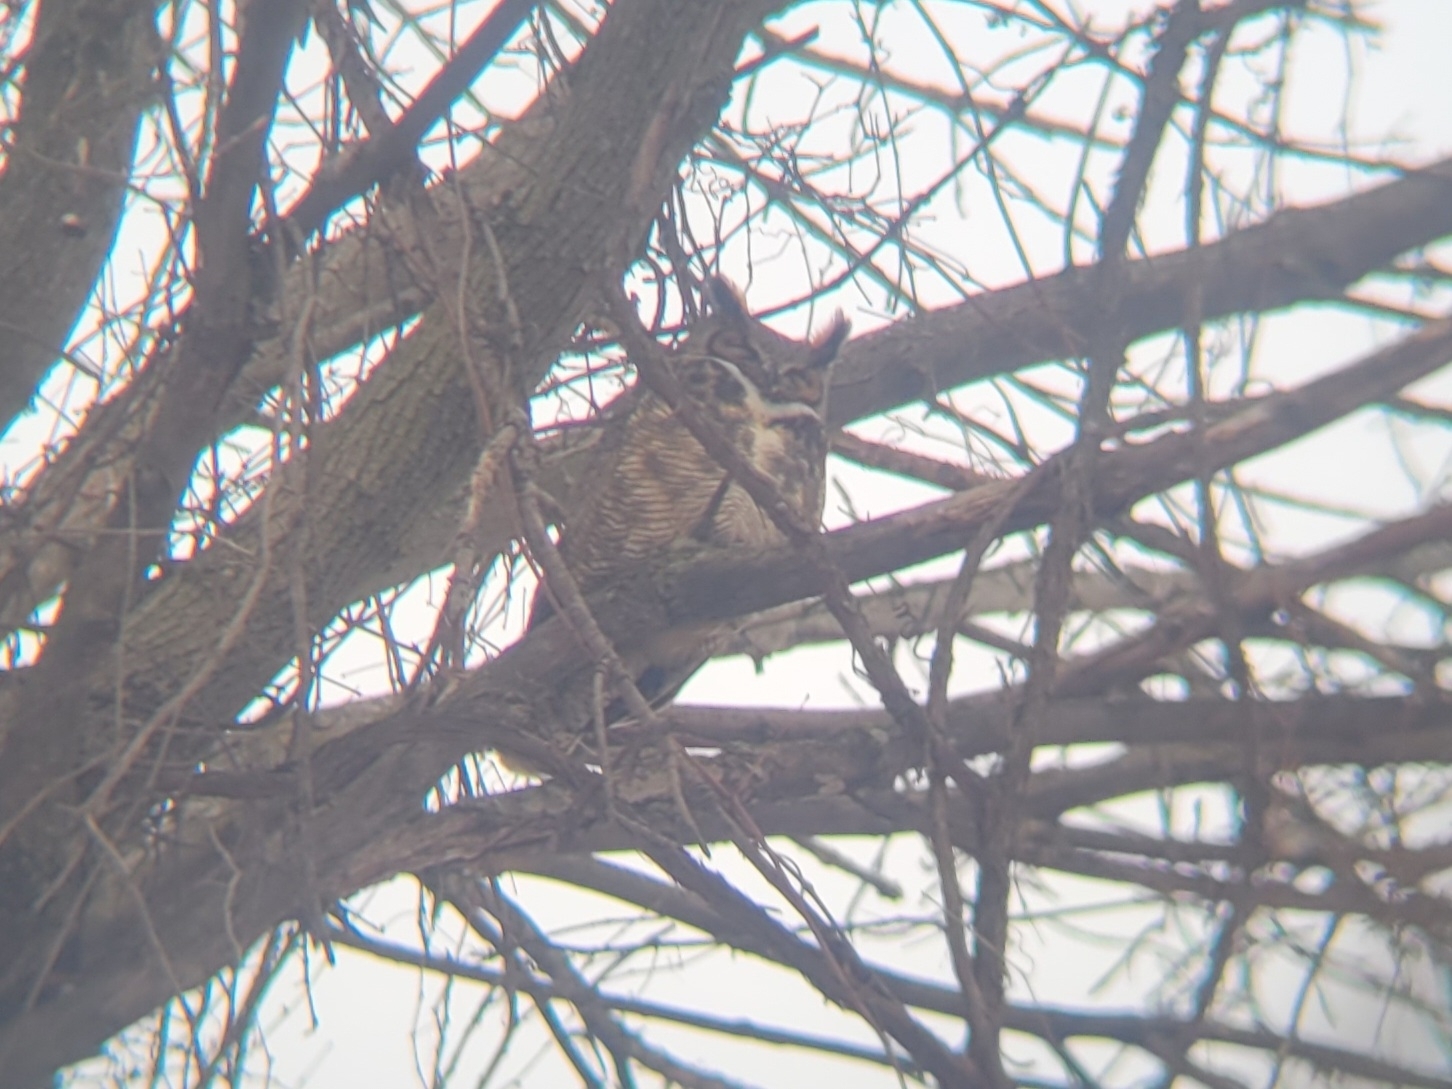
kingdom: Animalia
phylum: Chordata
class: Aves
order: Strigiformes
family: Strigidae
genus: Bubo
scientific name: Bubo virginianus
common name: Great horned owl
